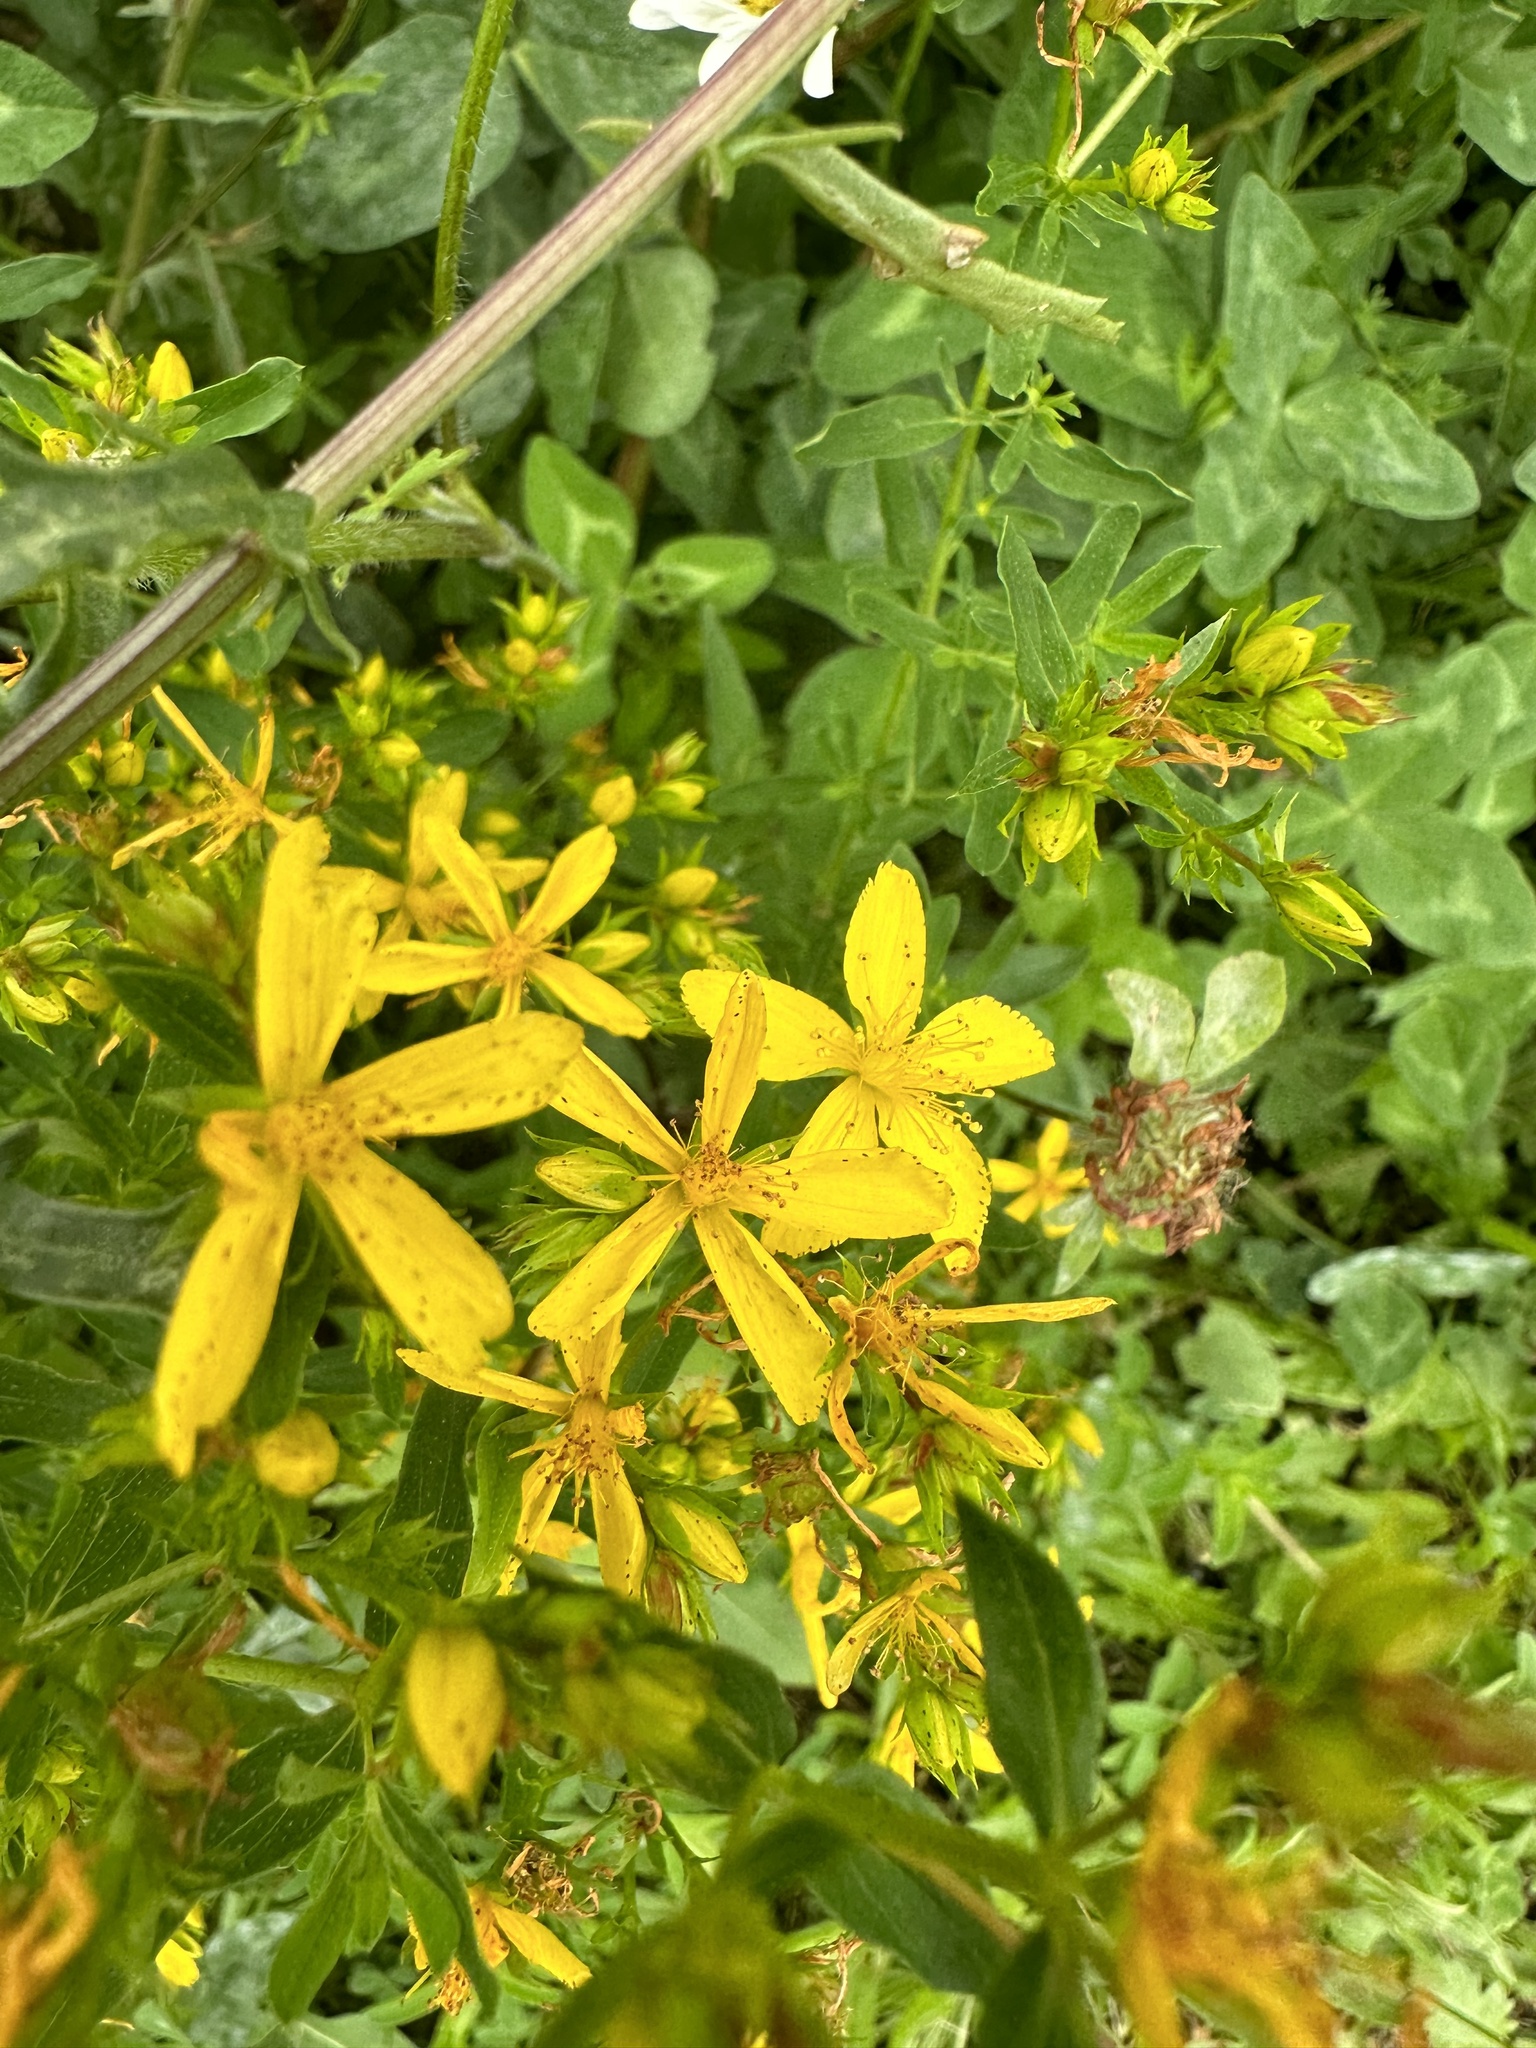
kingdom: Plantae
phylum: Tracheophyta
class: Magnoliopsida
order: Malpighiales
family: Hypericaceae
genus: Hypericum
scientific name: Hypericum perforatum
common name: Common st. johnswort
